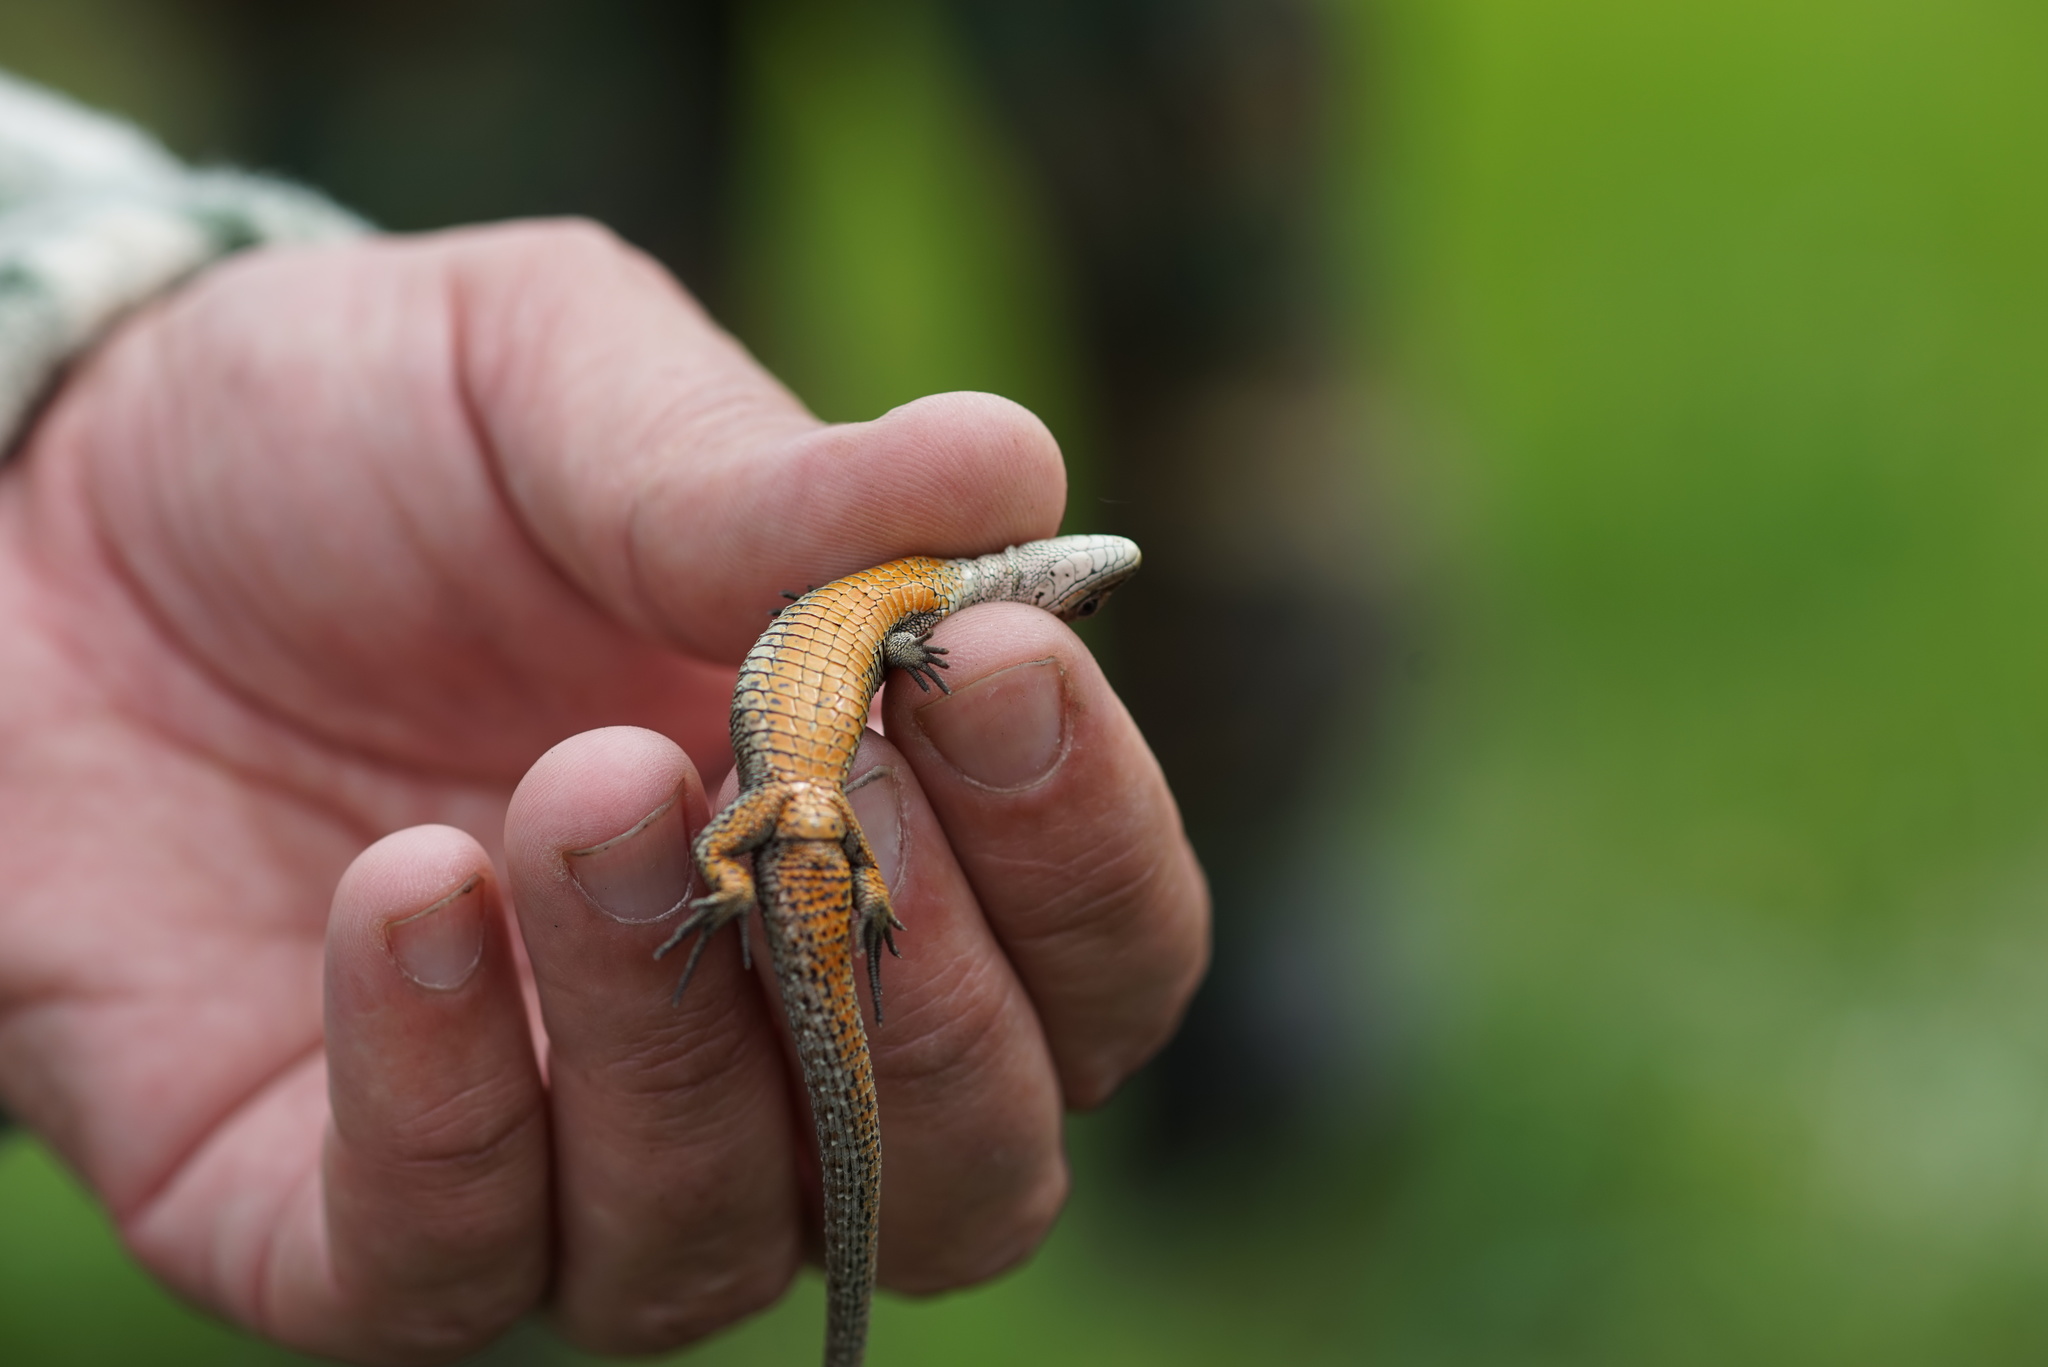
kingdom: Animalia
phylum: Chordata
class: Squamata
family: Lacertidae
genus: Zootoca
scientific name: Zootoca vivipara
